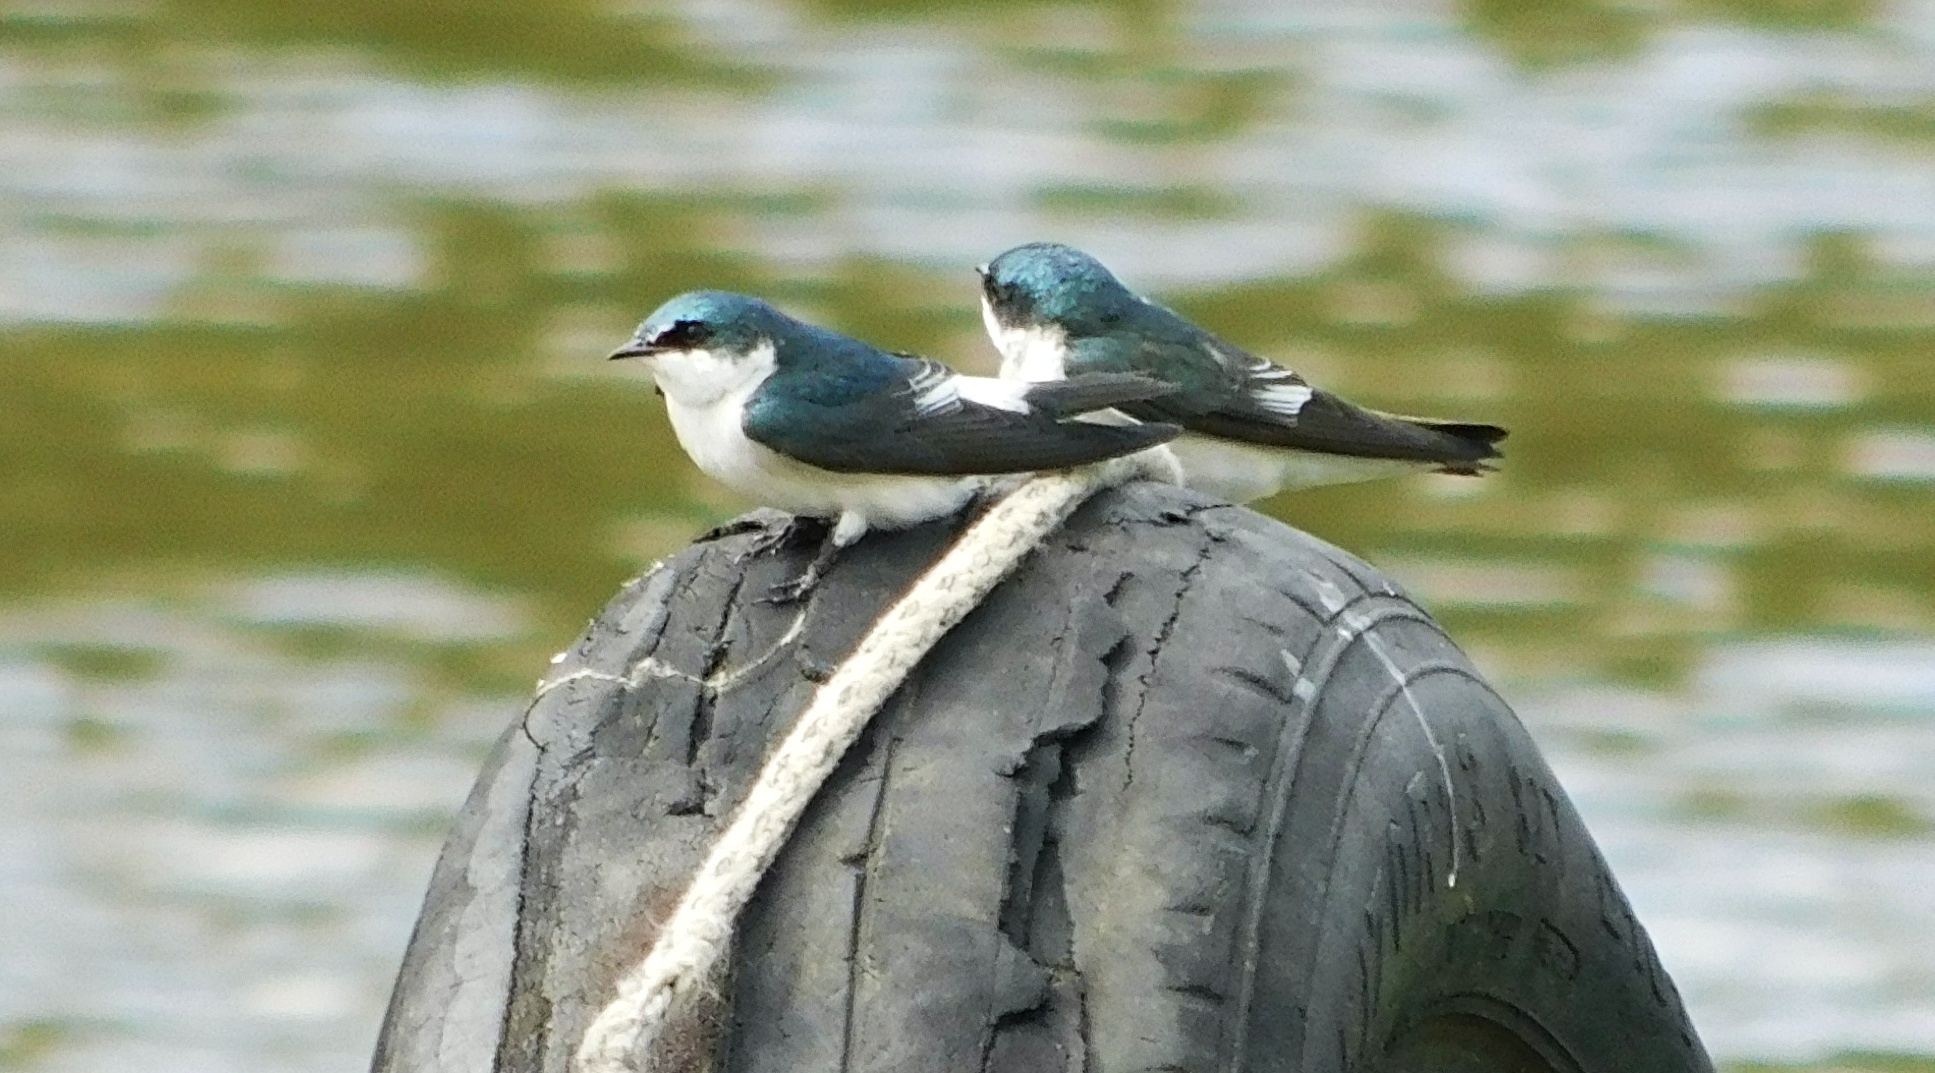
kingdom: Animalia
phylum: Chordata
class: Aves
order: Passeriformes
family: Hirundinidae
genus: Tachycineta
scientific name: Tachycineta albilinea
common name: Mangrove swallow
